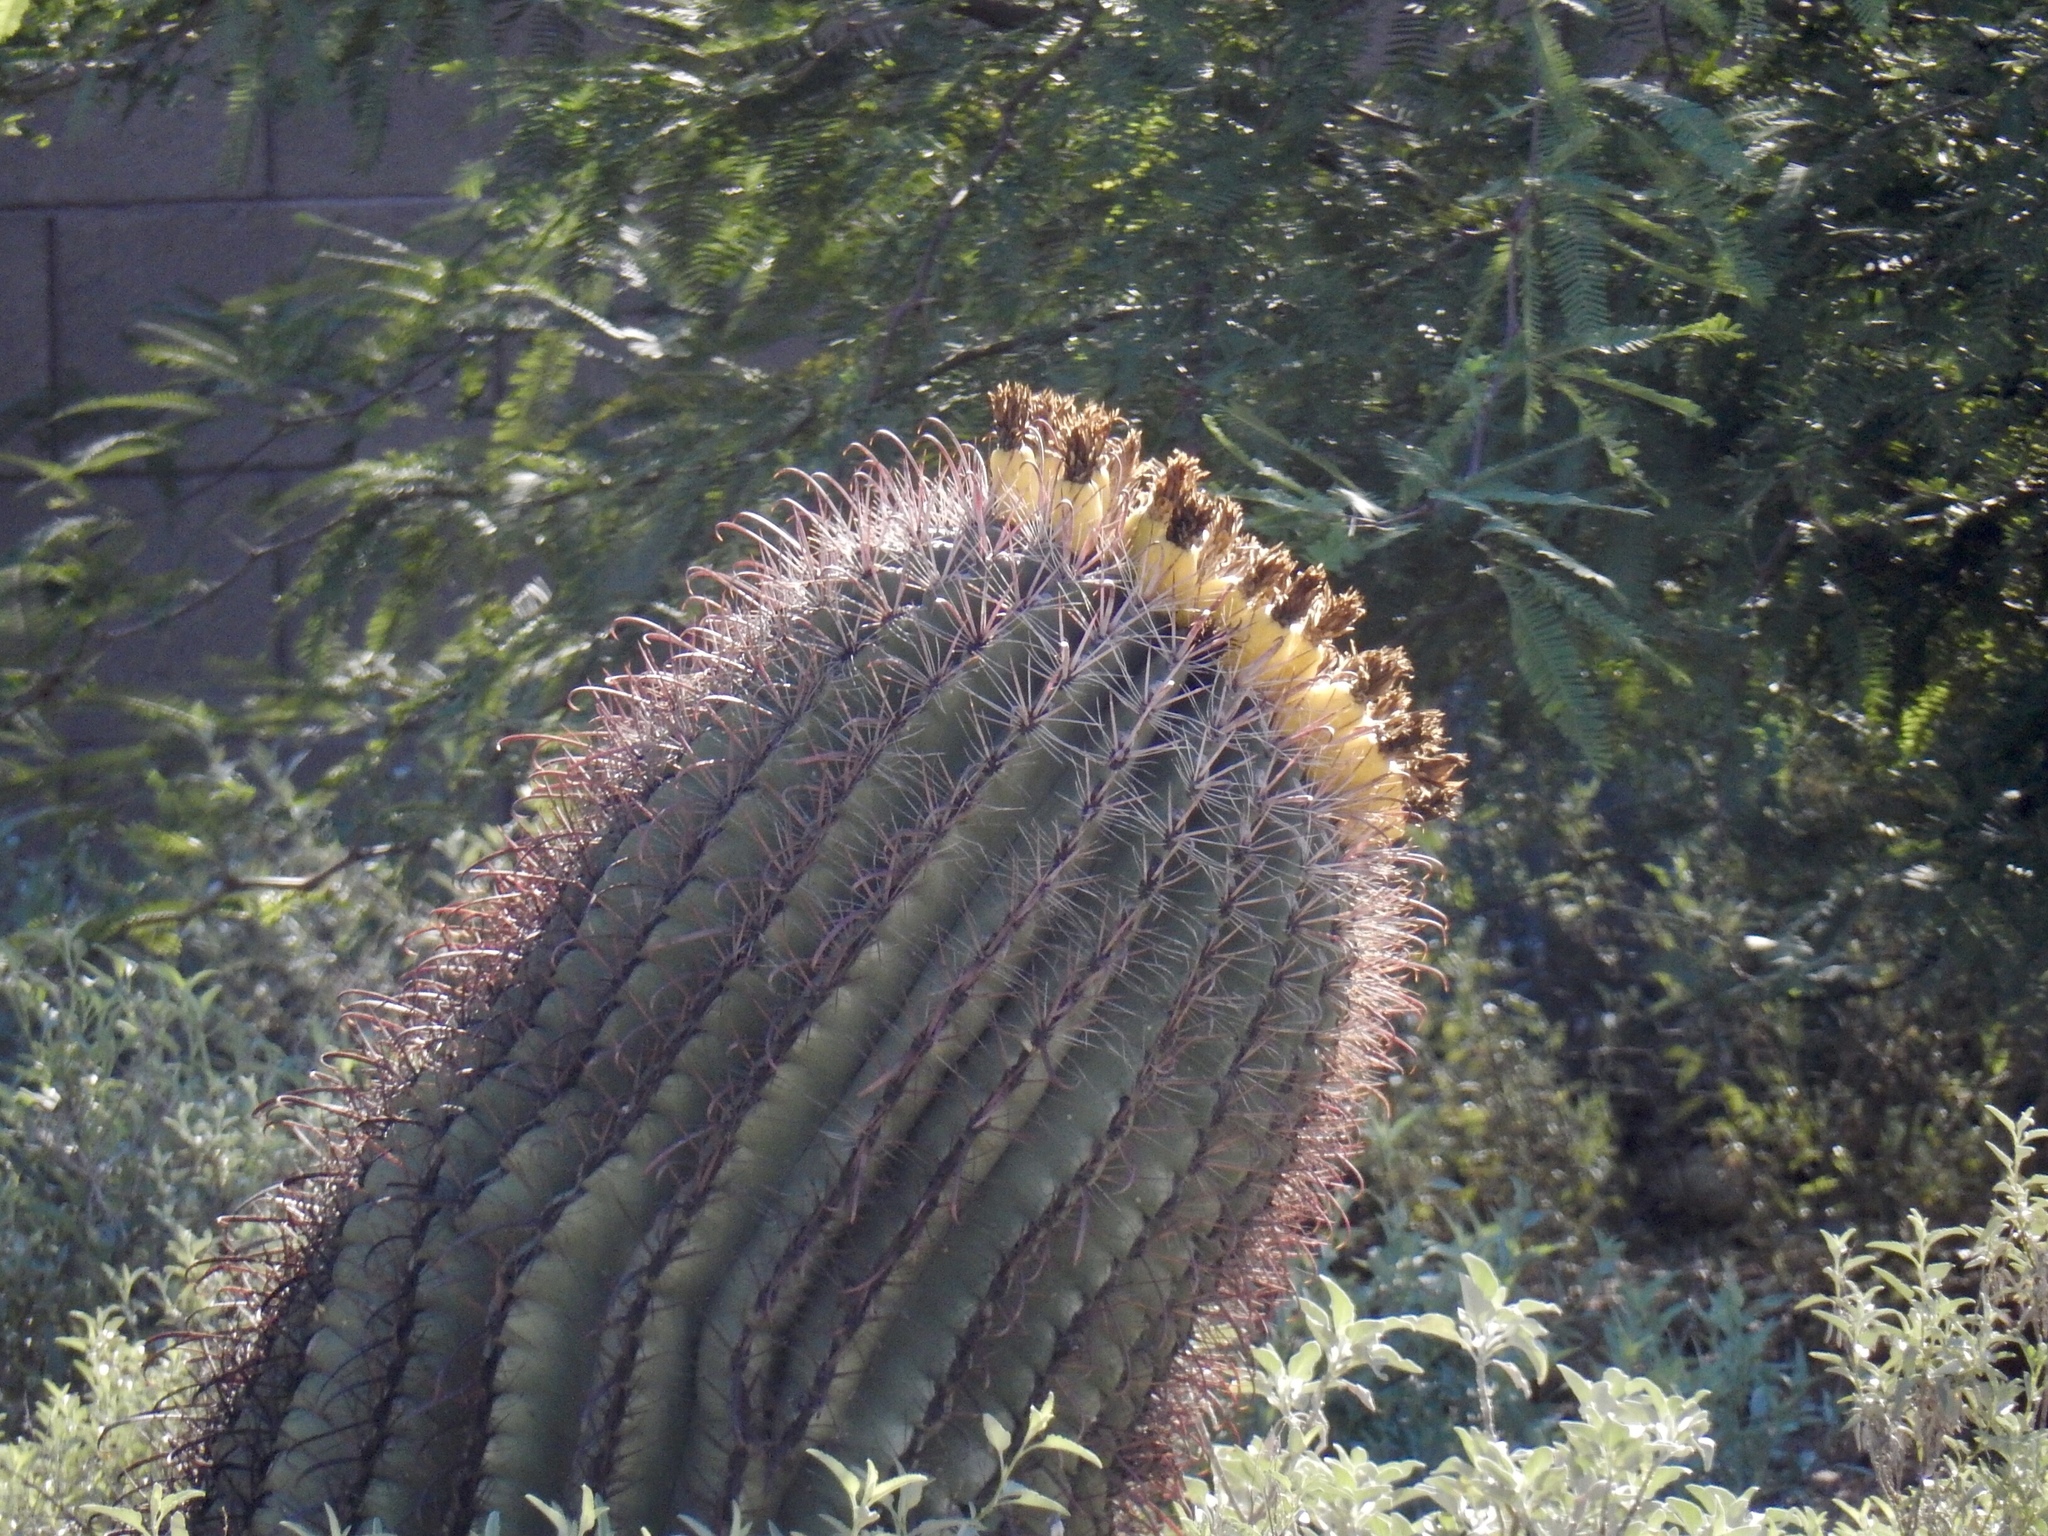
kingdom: Plantae
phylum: Tracheophyta
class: Magnoliopsida
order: Caryophyllales
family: Cactaceae
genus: Ferocactus
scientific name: Ferocactus wislizeni
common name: Candy barrel cactus
